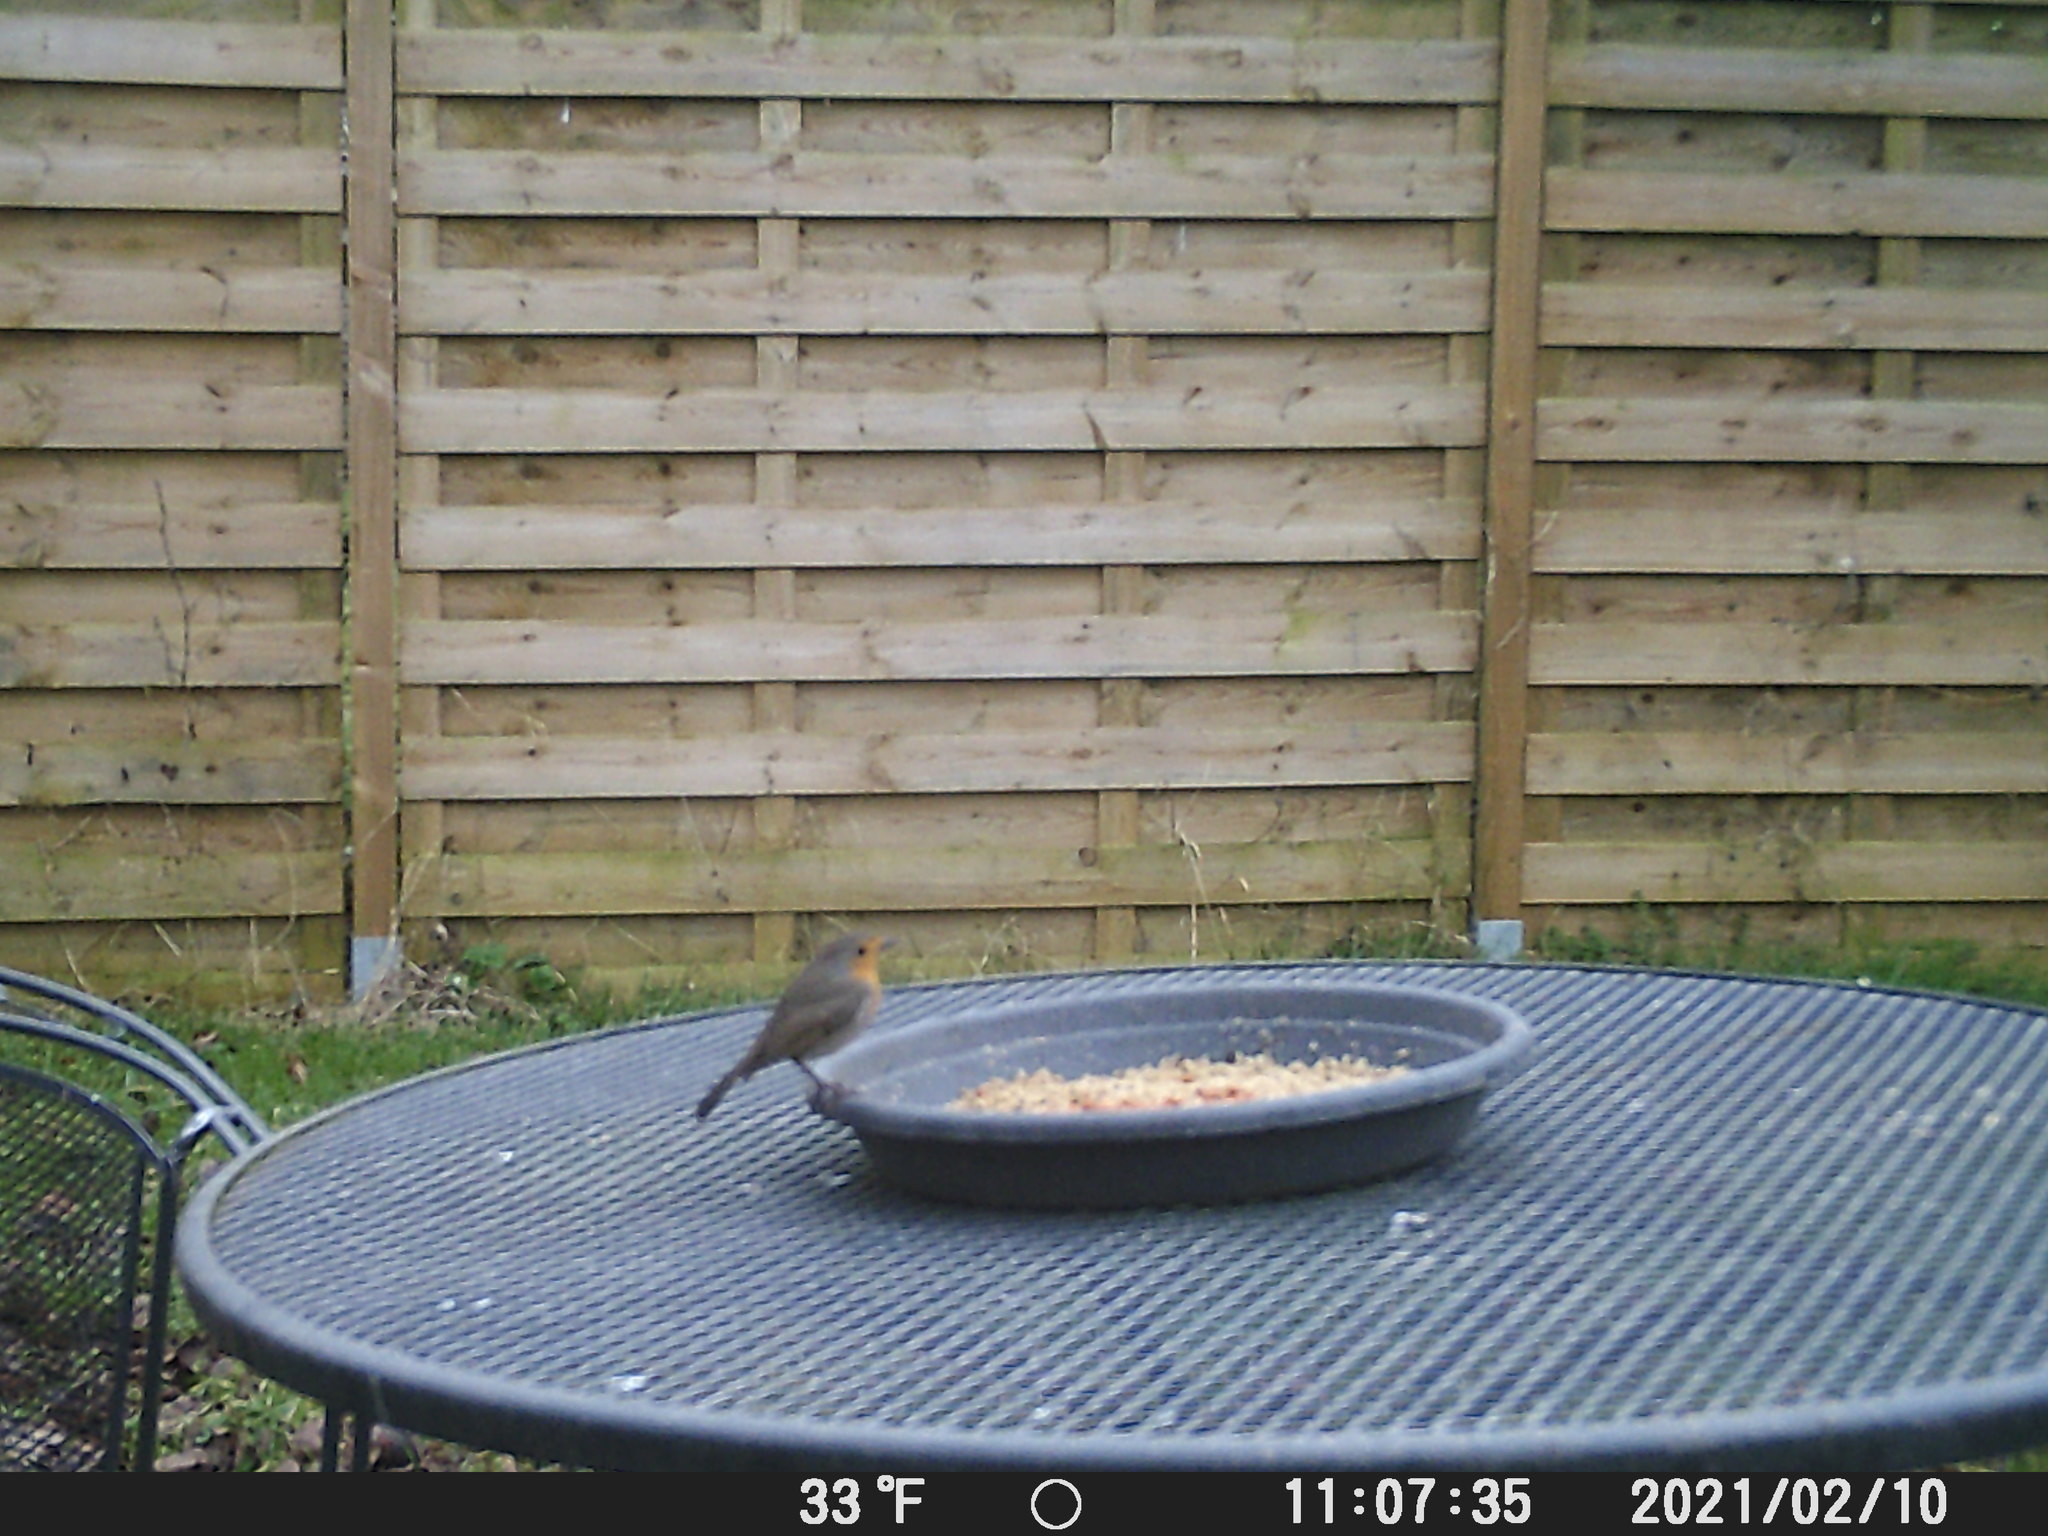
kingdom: Animalia
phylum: Chordata
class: Aves
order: Passeriformes
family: Muscicapidae
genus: Erithacus
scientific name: Erithacus rubecula
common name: European robin
